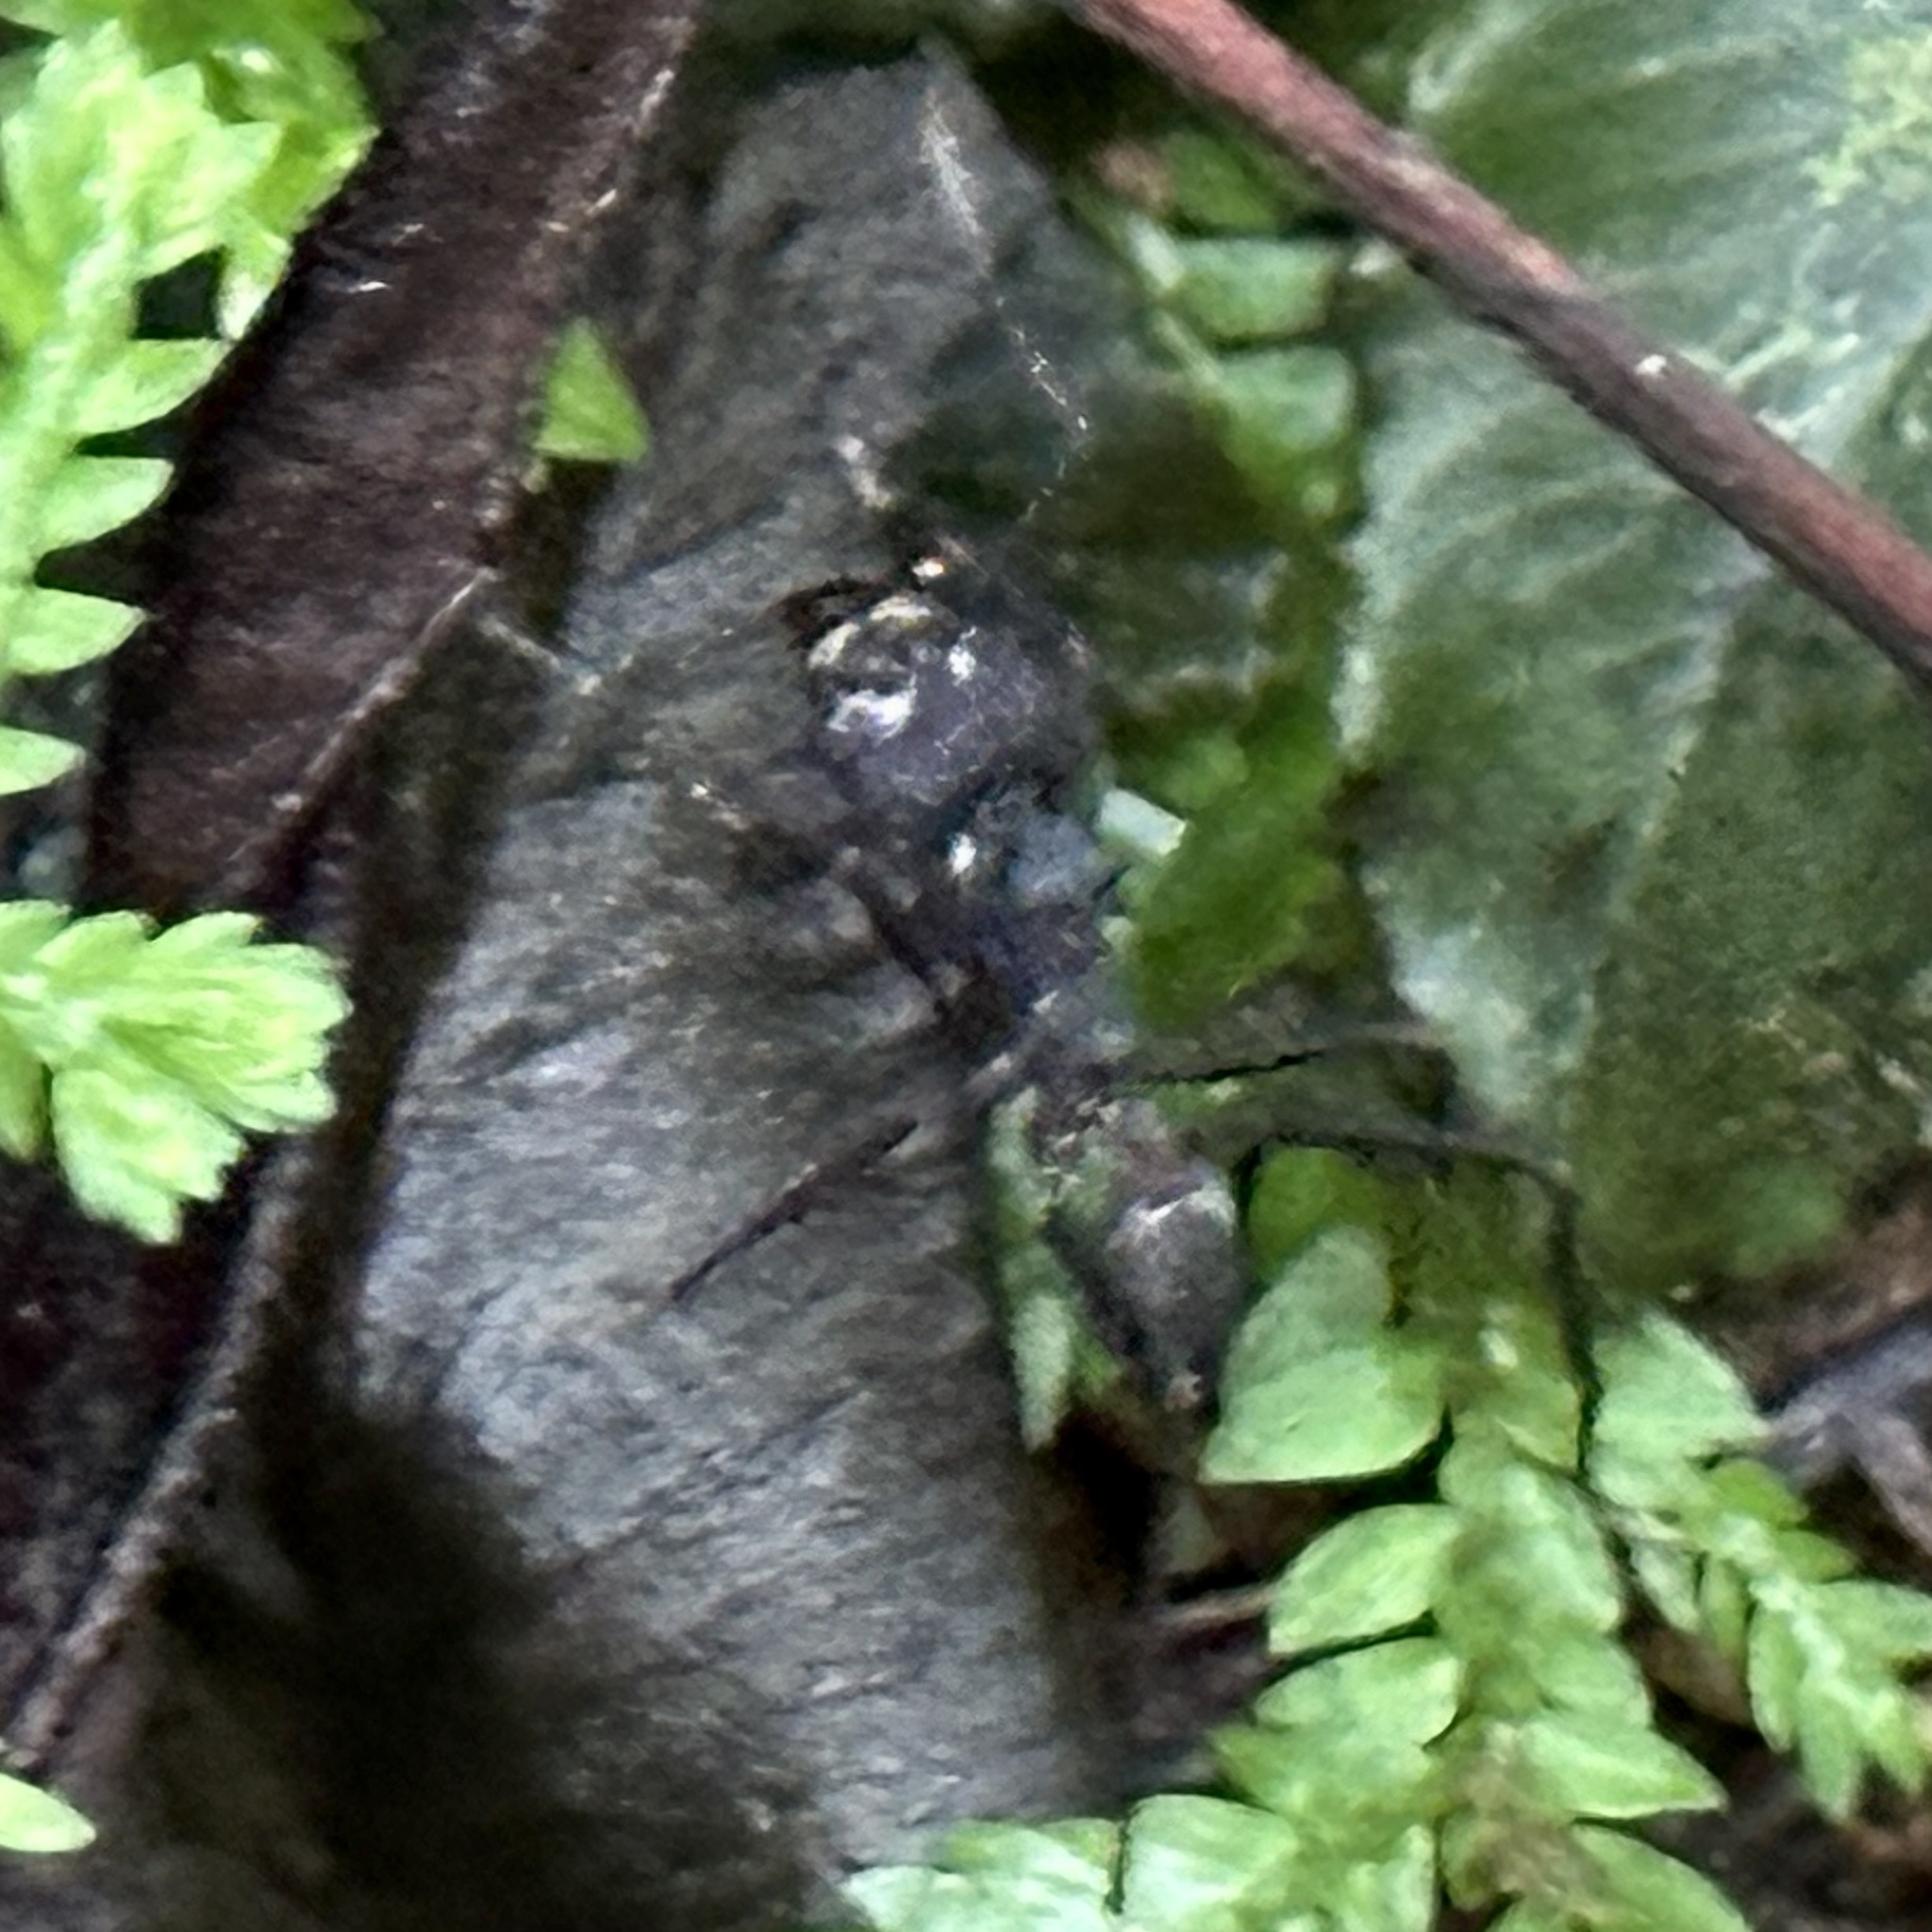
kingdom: Animalia
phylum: Arthropoda
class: Insecta
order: Hymenoptera
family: Formicidae
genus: Acromyrmex
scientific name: Acromyrmex volcanus
